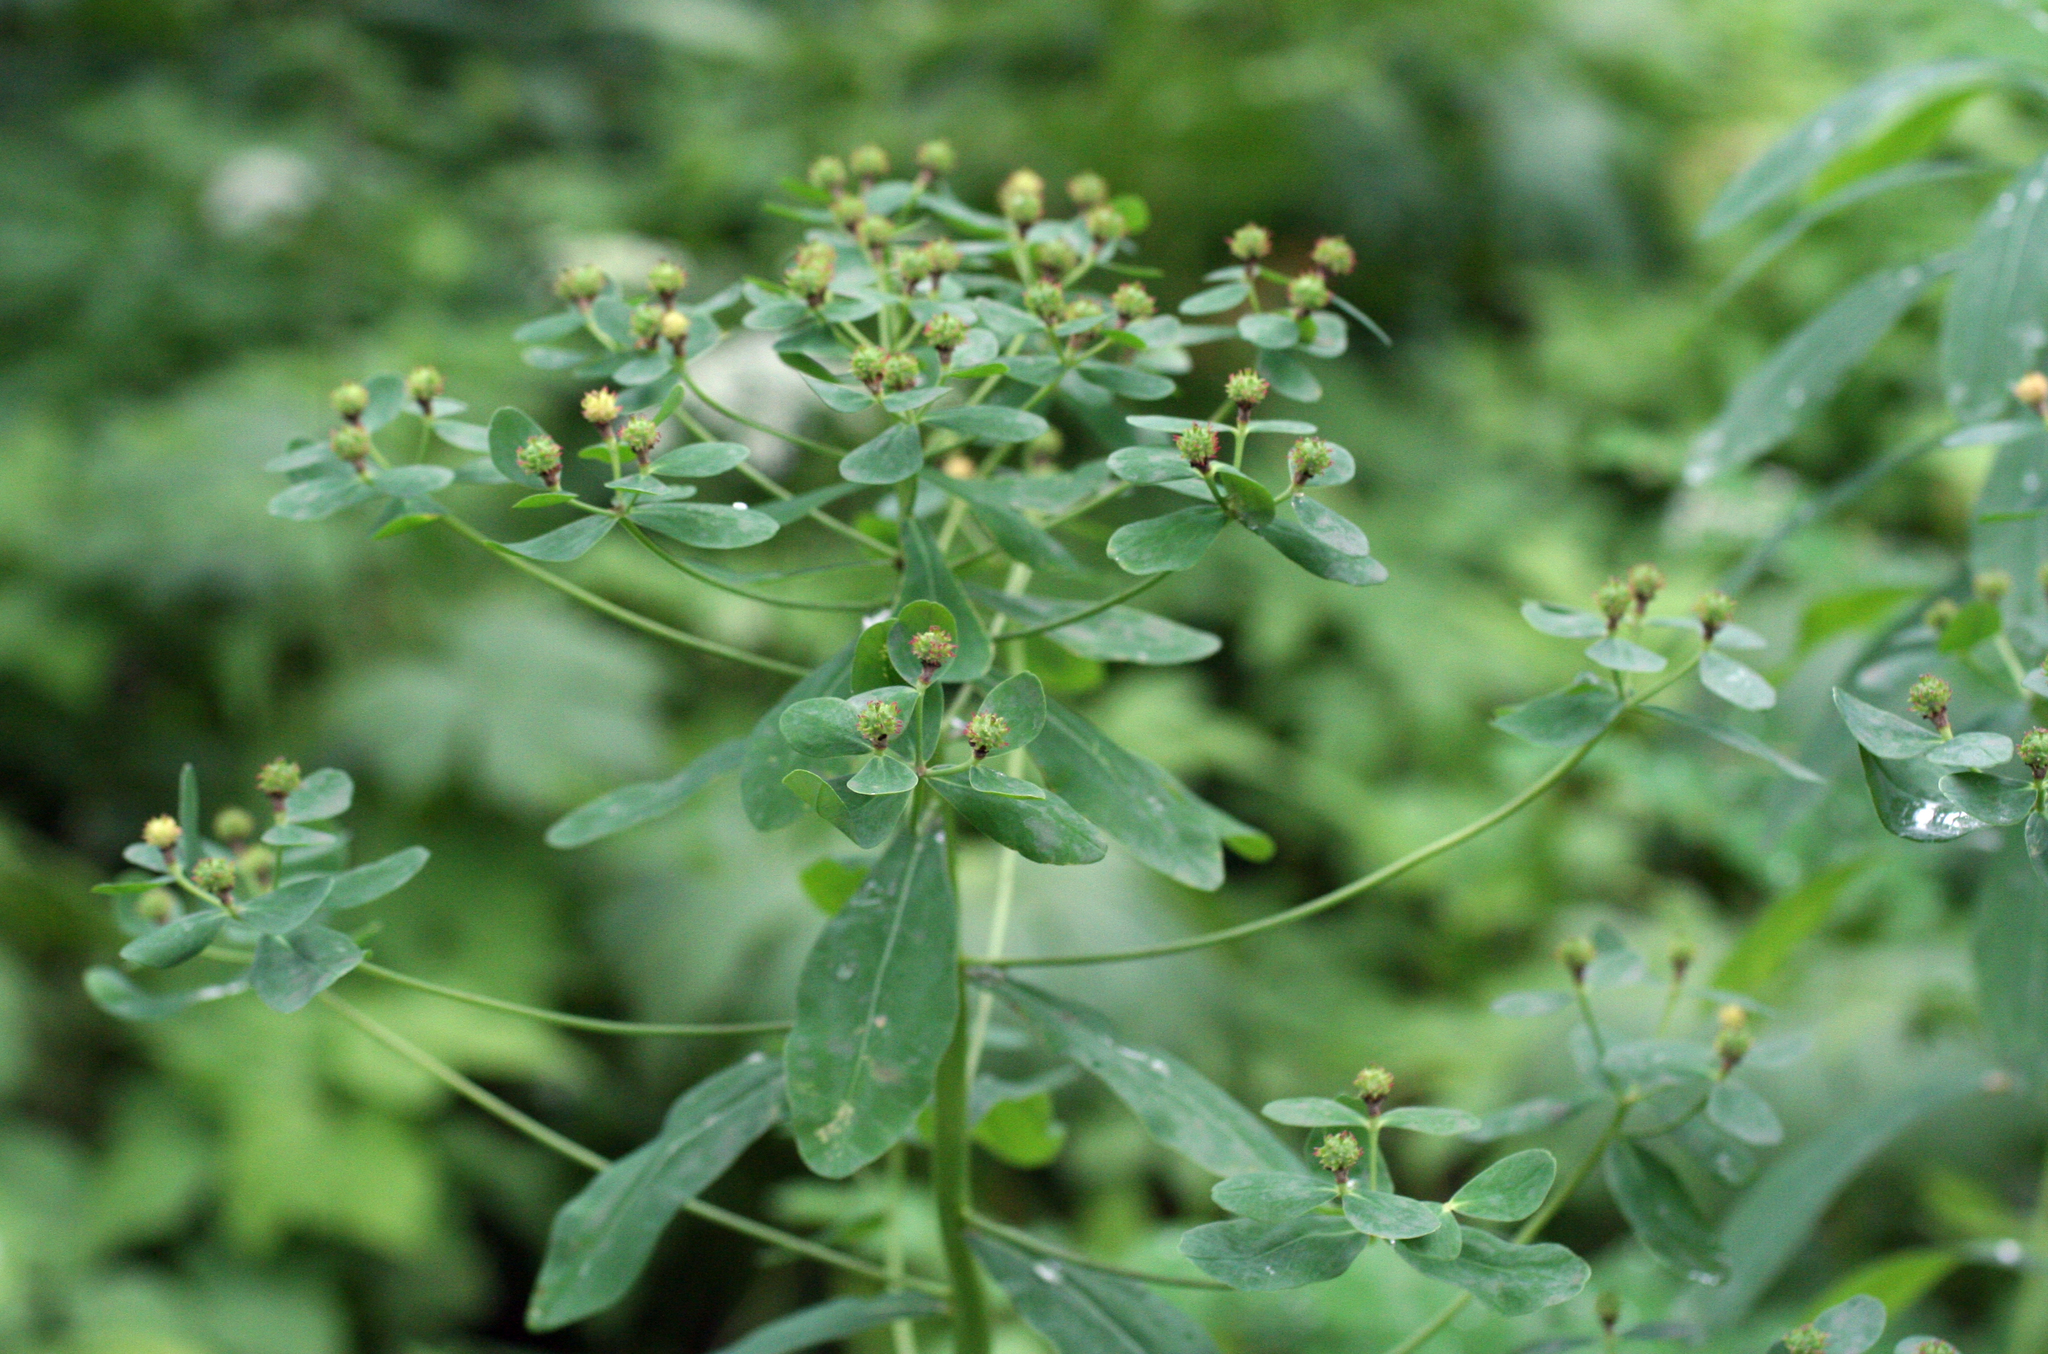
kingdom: Plantae
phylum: Tracheophyta
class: Magnoliopsida
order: Malpighiales
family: Euphorbiaceae
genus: Euphorbia
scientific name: Euphorbia pilosa
